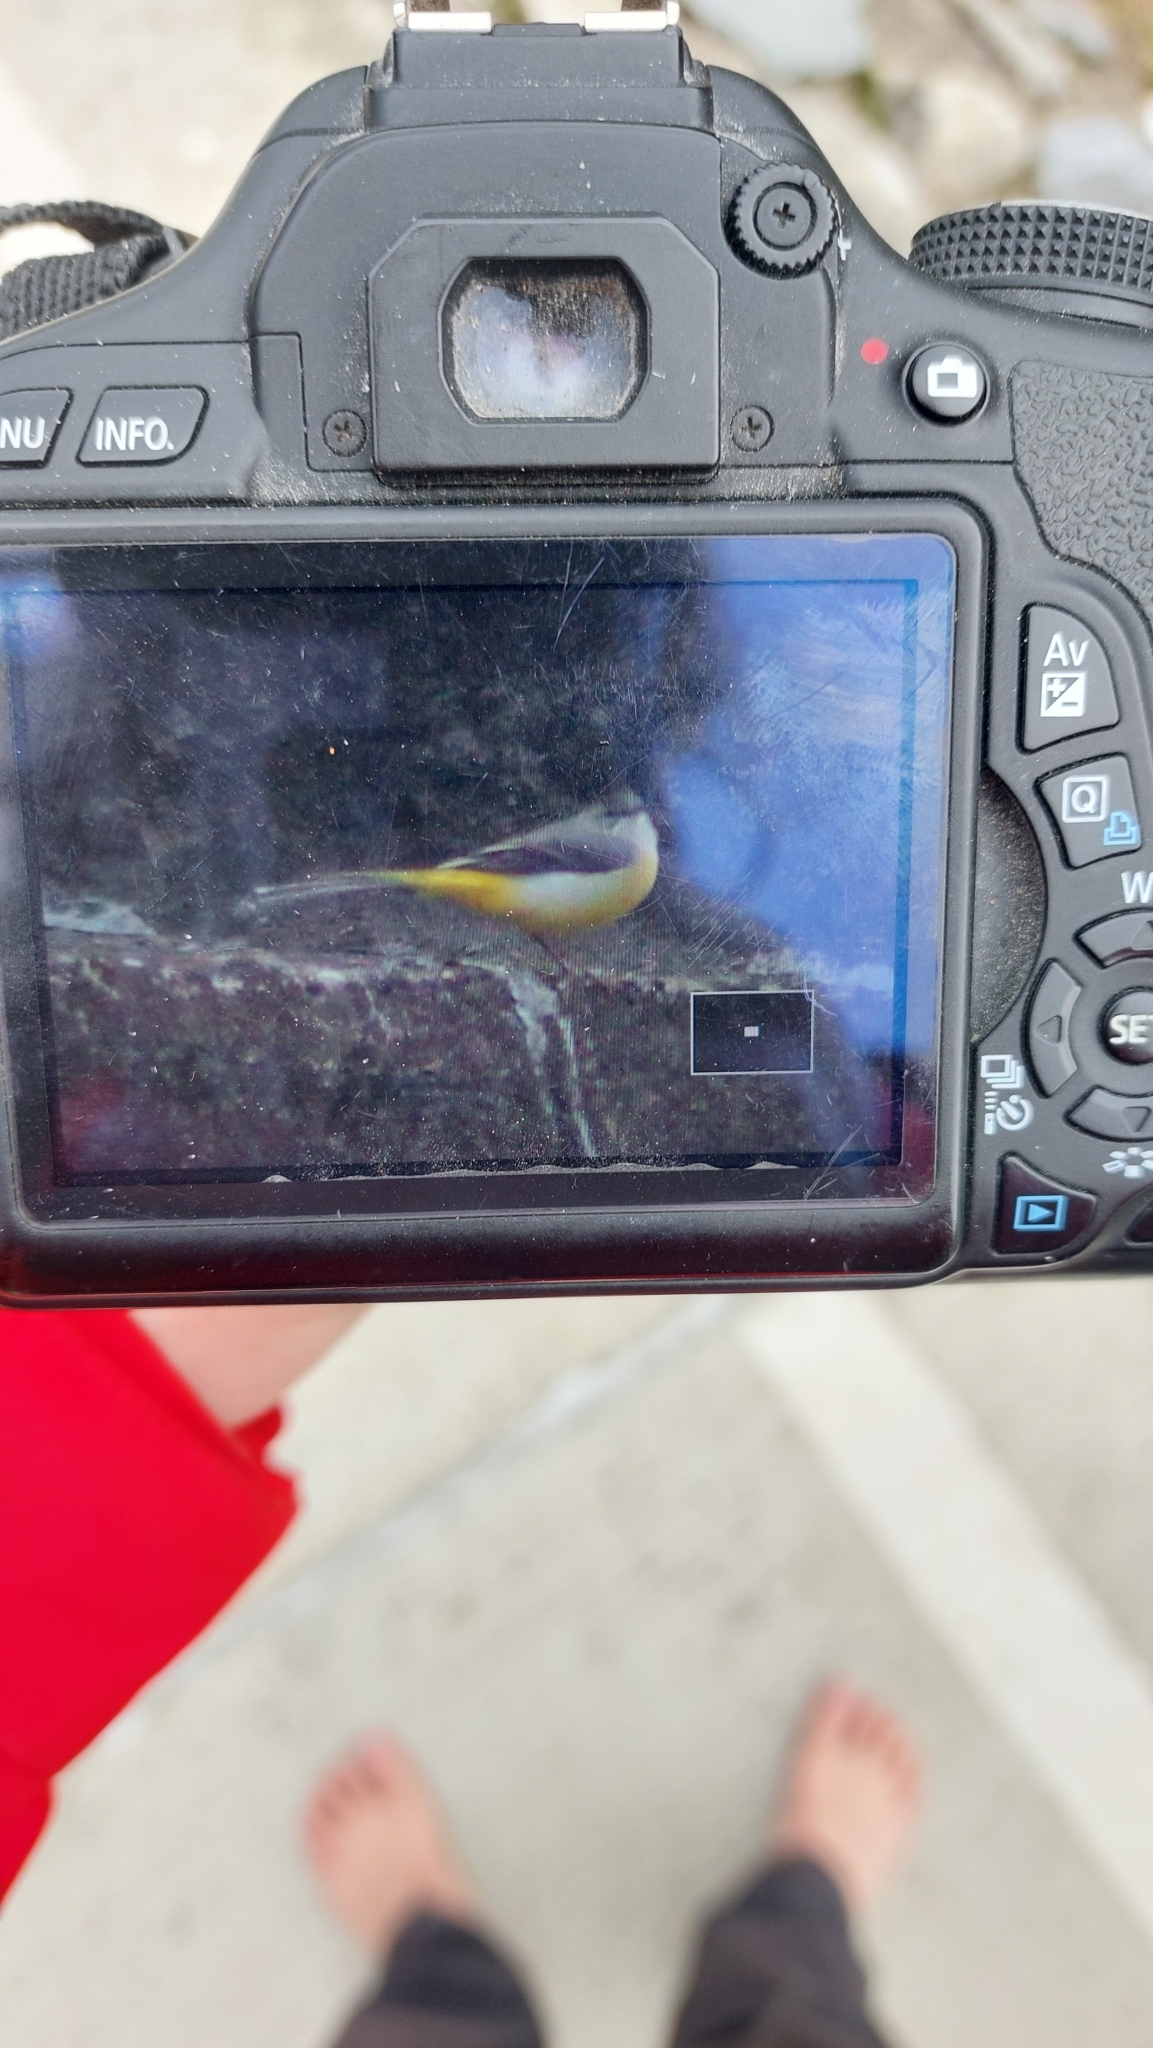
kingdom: Animalia
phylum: Chordata
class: Aves
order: Passeriformes
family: Motacillidae
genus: Motacilla
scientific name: Motacilla cinerea
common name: Grey wagtail
